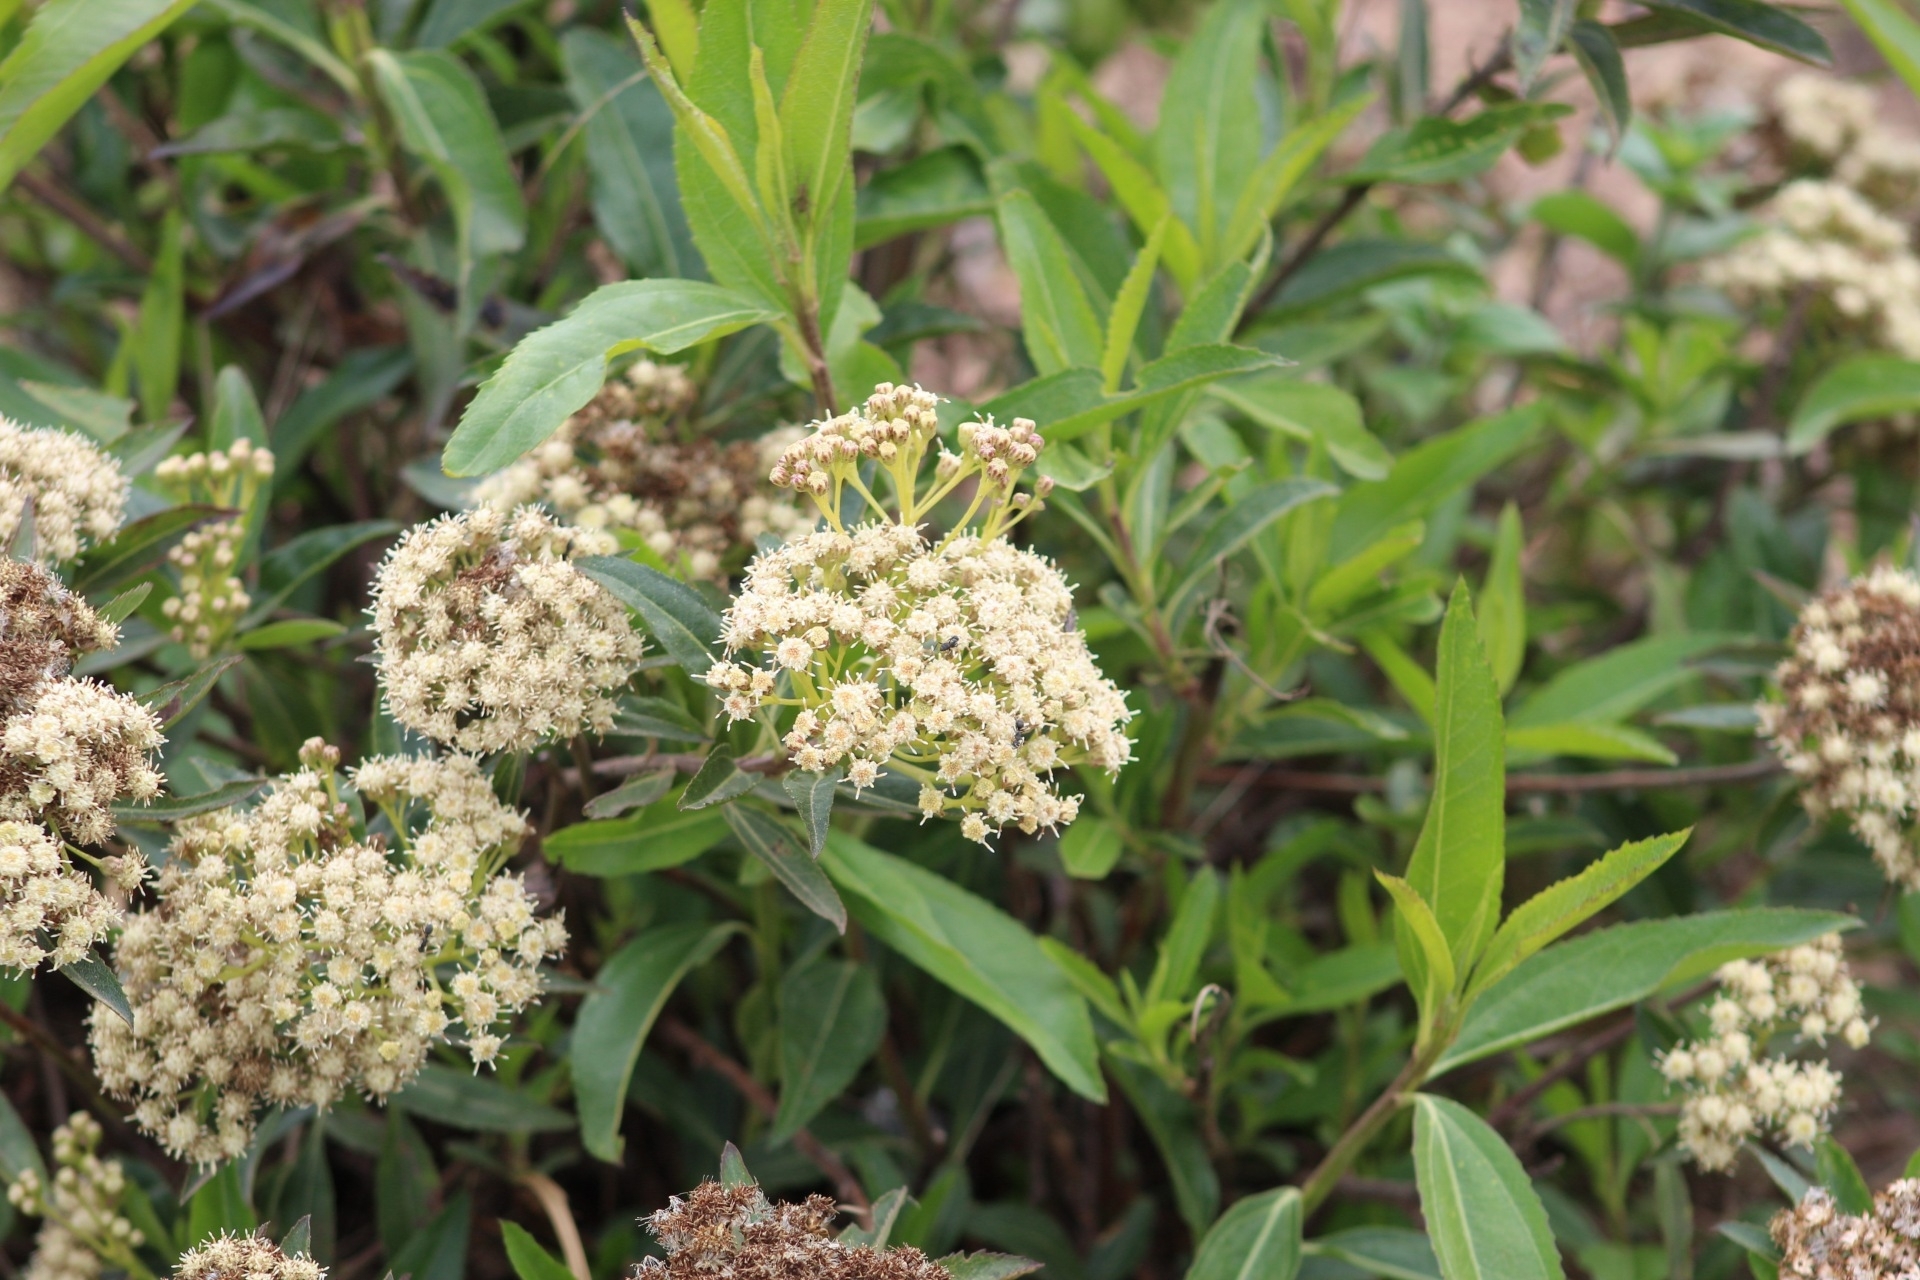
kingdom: Plantae
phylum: Tracheophyta
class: Magnoliopsida
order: Asterales
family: Asteraceae
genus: Baccharis
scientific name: Baccharis latifolia
